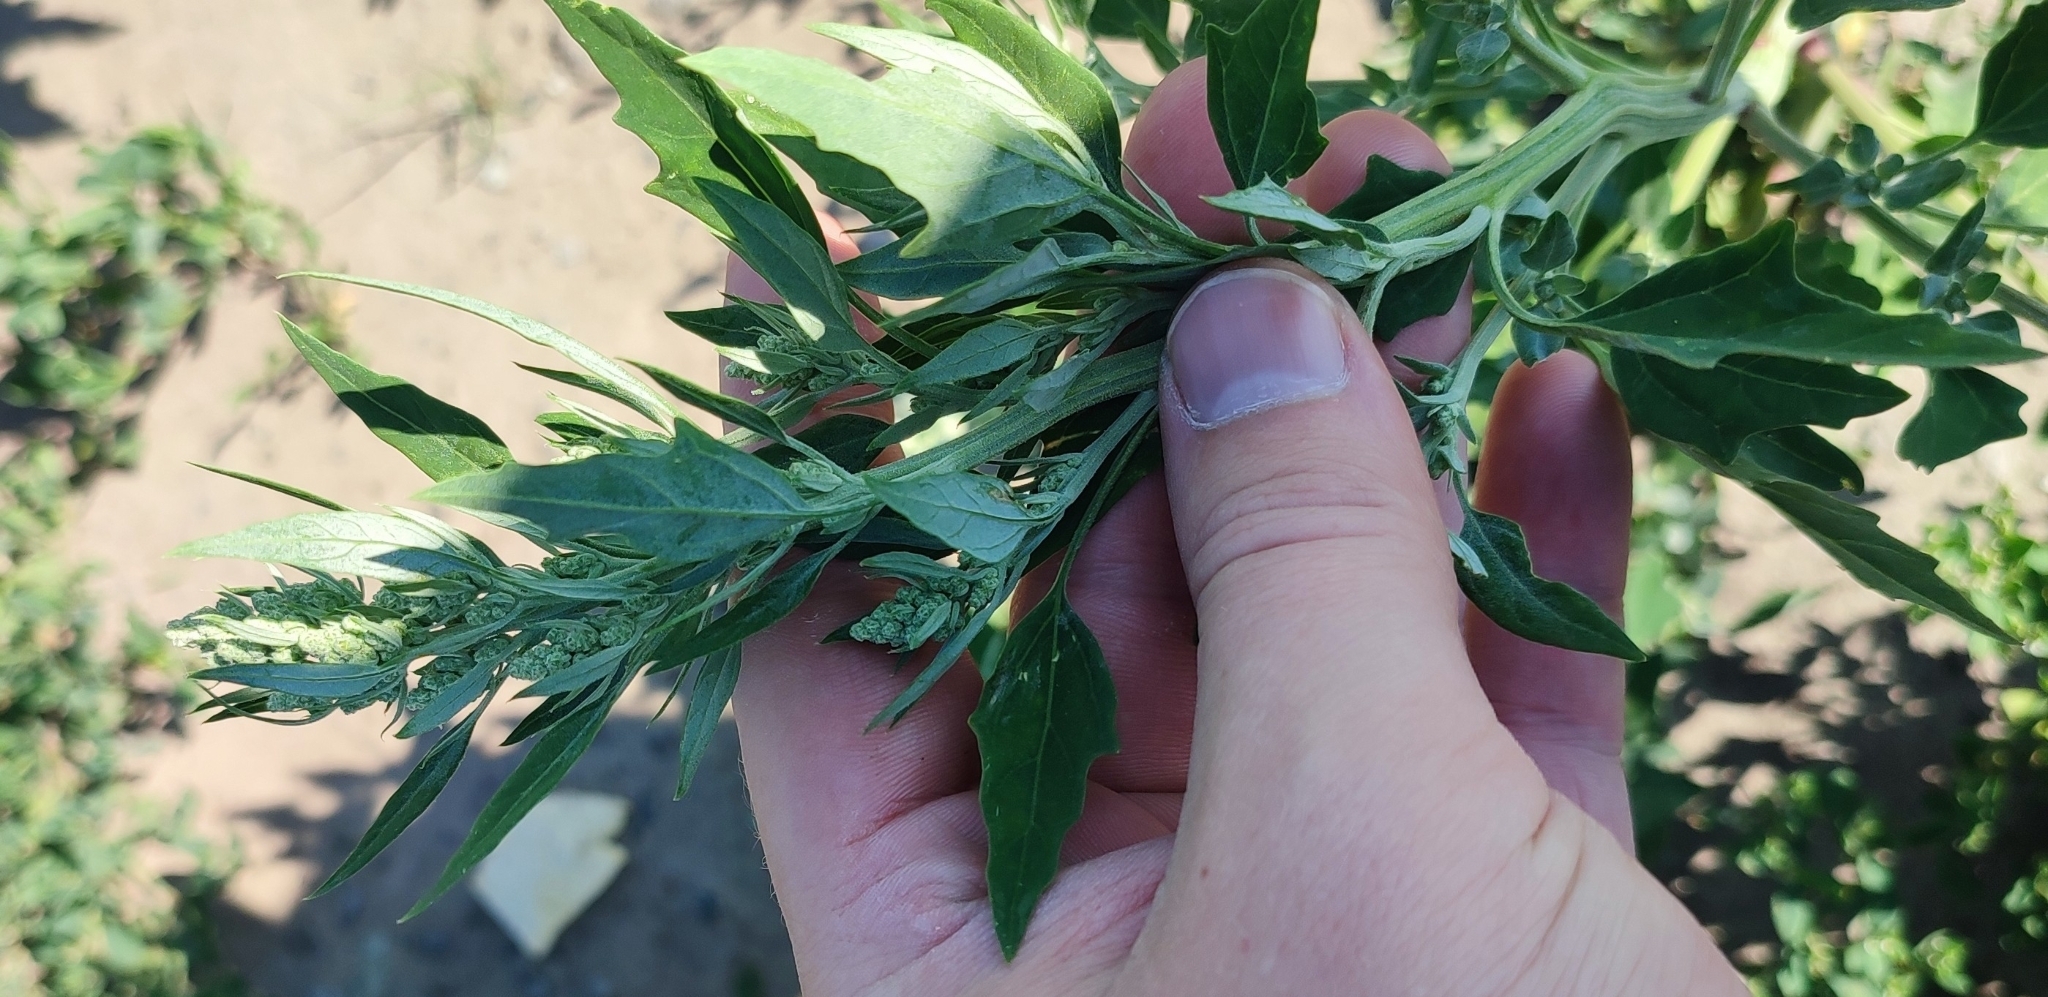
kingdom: Plantae
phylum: Tracheophyta
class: Magnoliopsida
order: Caryophyllales
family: Amaranthaceae
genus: Chenopodium
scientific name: Chenopodium album
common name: Fat-hen
